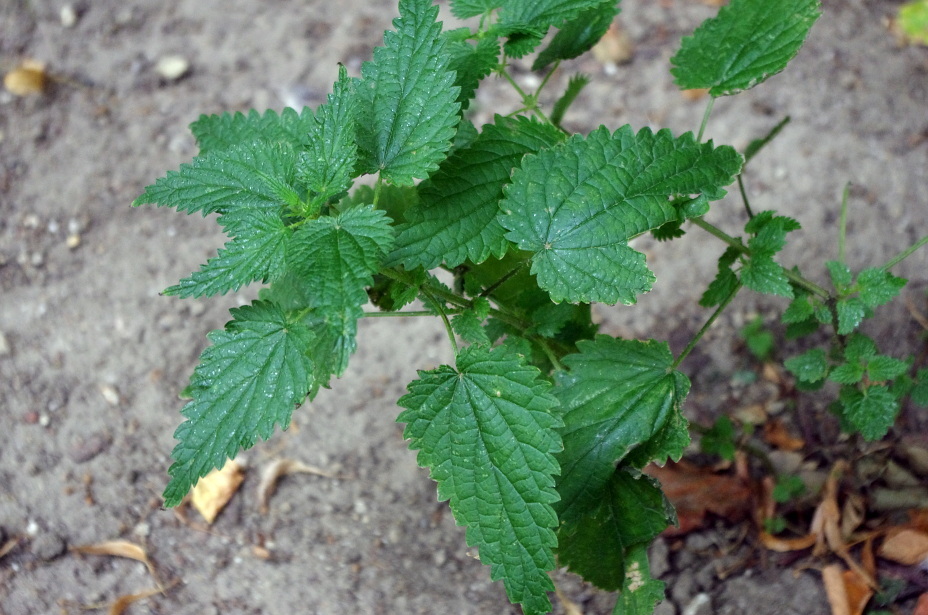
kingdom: Plantae
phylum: Tracheophyta
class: Magnoliopsida
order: Rosales
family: Urticaceae
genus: Urtica
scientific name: Urtica dioica
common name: Common nettle
